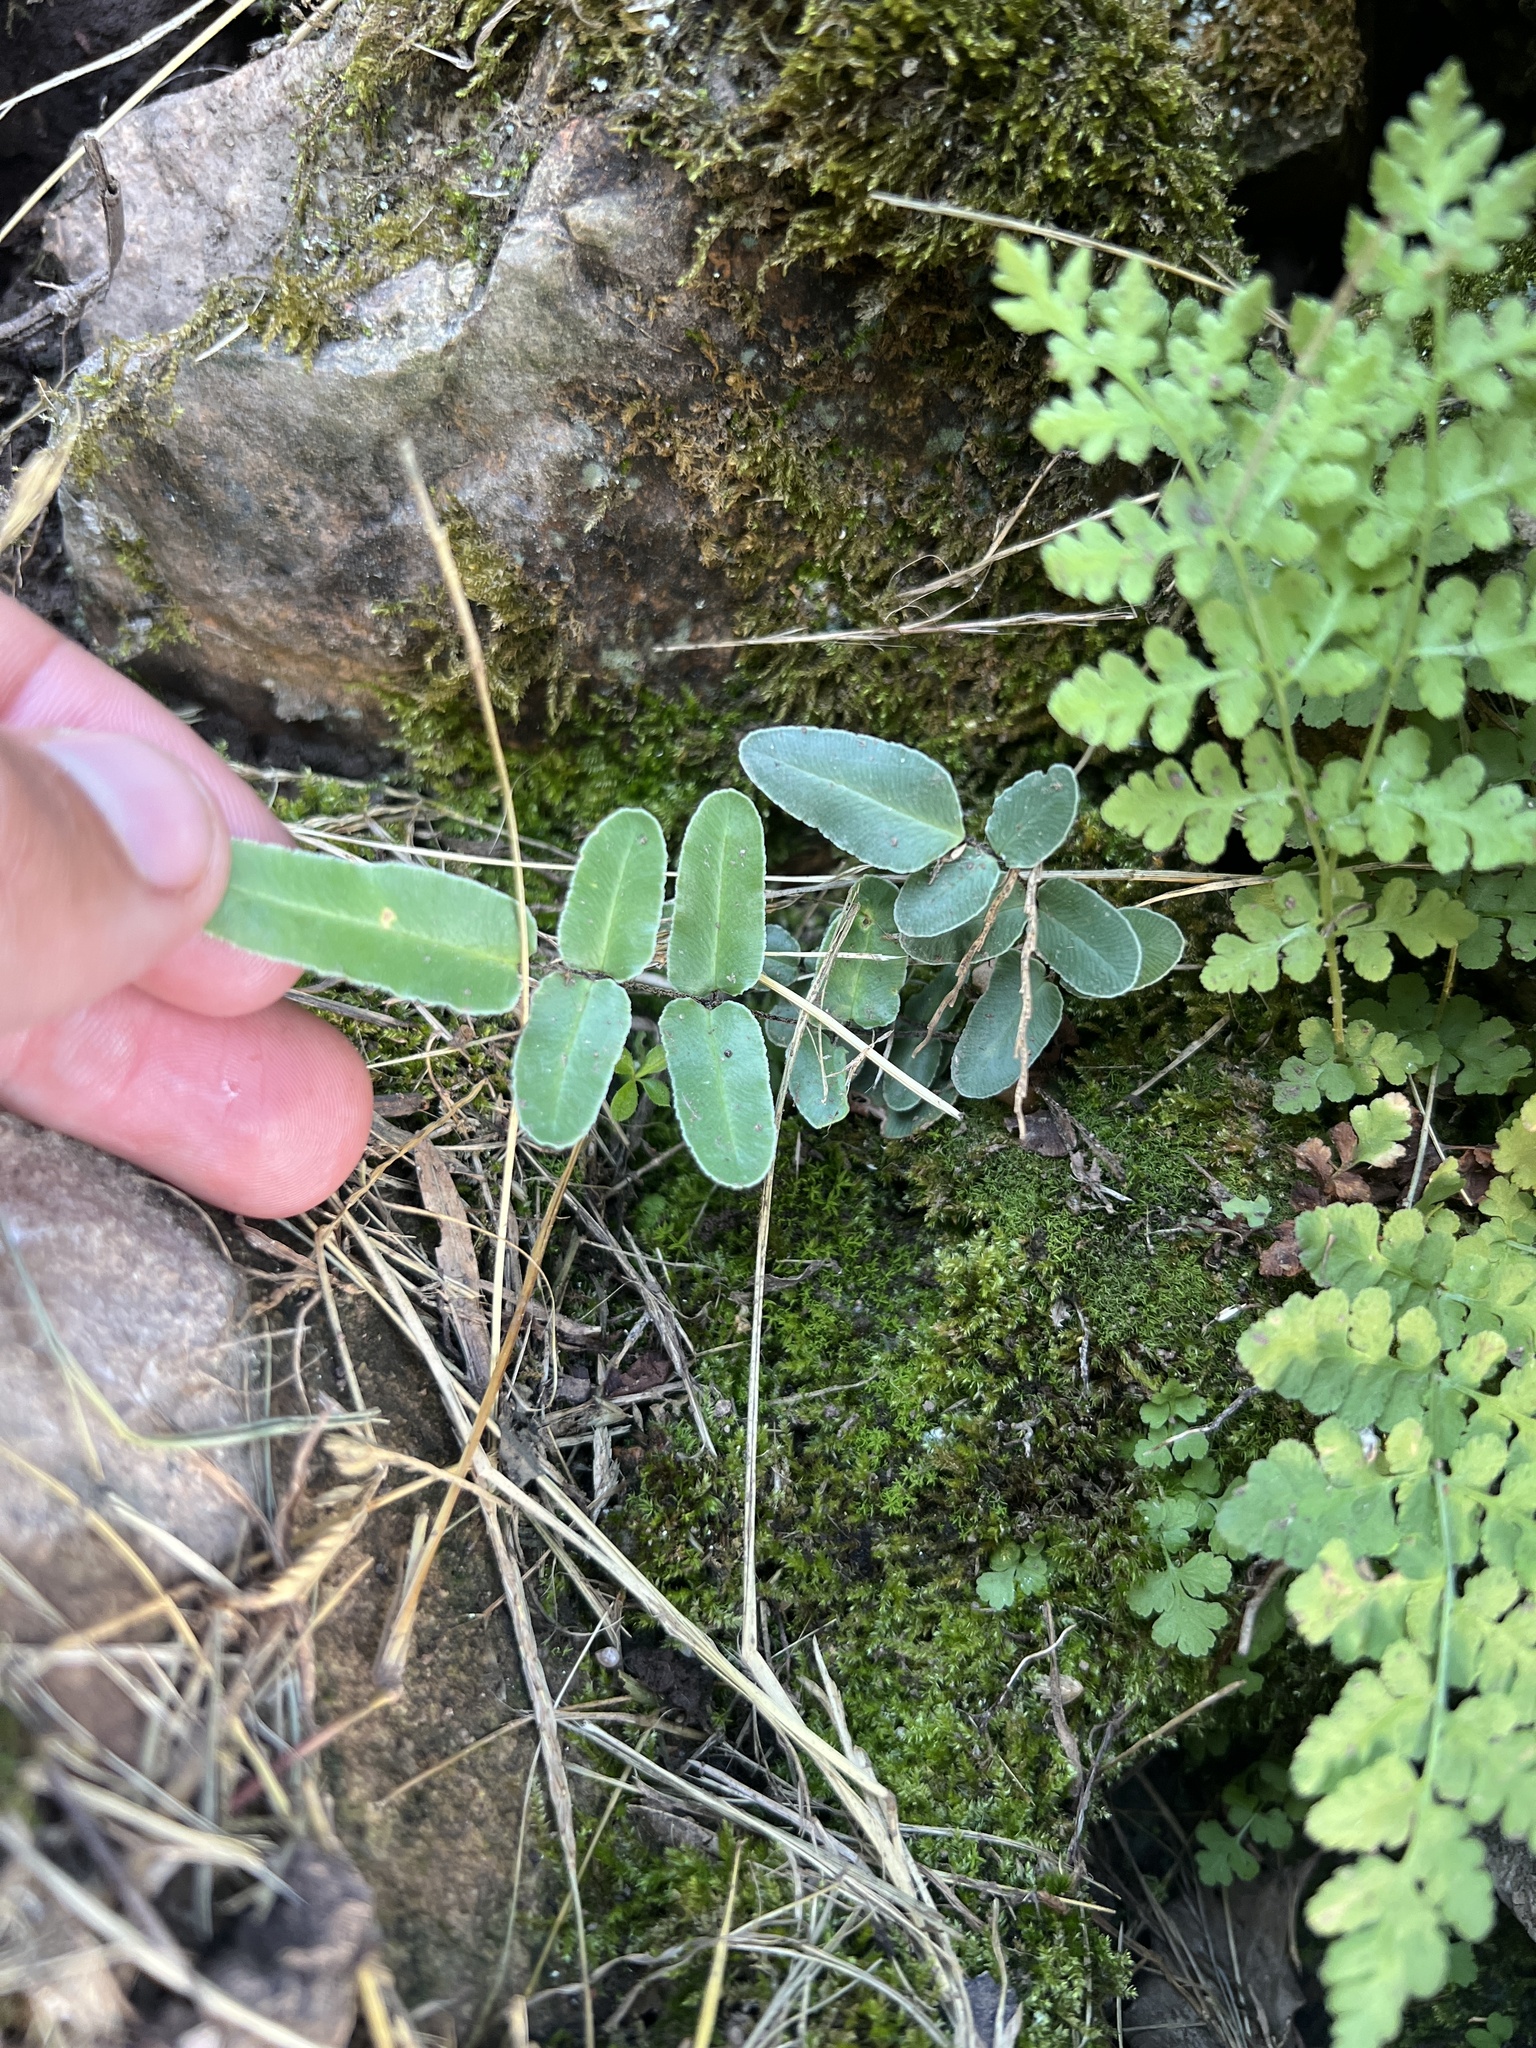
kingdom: Plantae
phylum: Tracheophyta
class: Polypodiopsida
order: Polypodiales
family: Pteridaceae
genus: Pellaea
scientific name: Pellaea atropurpurea
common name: Hairy cliffbrake
